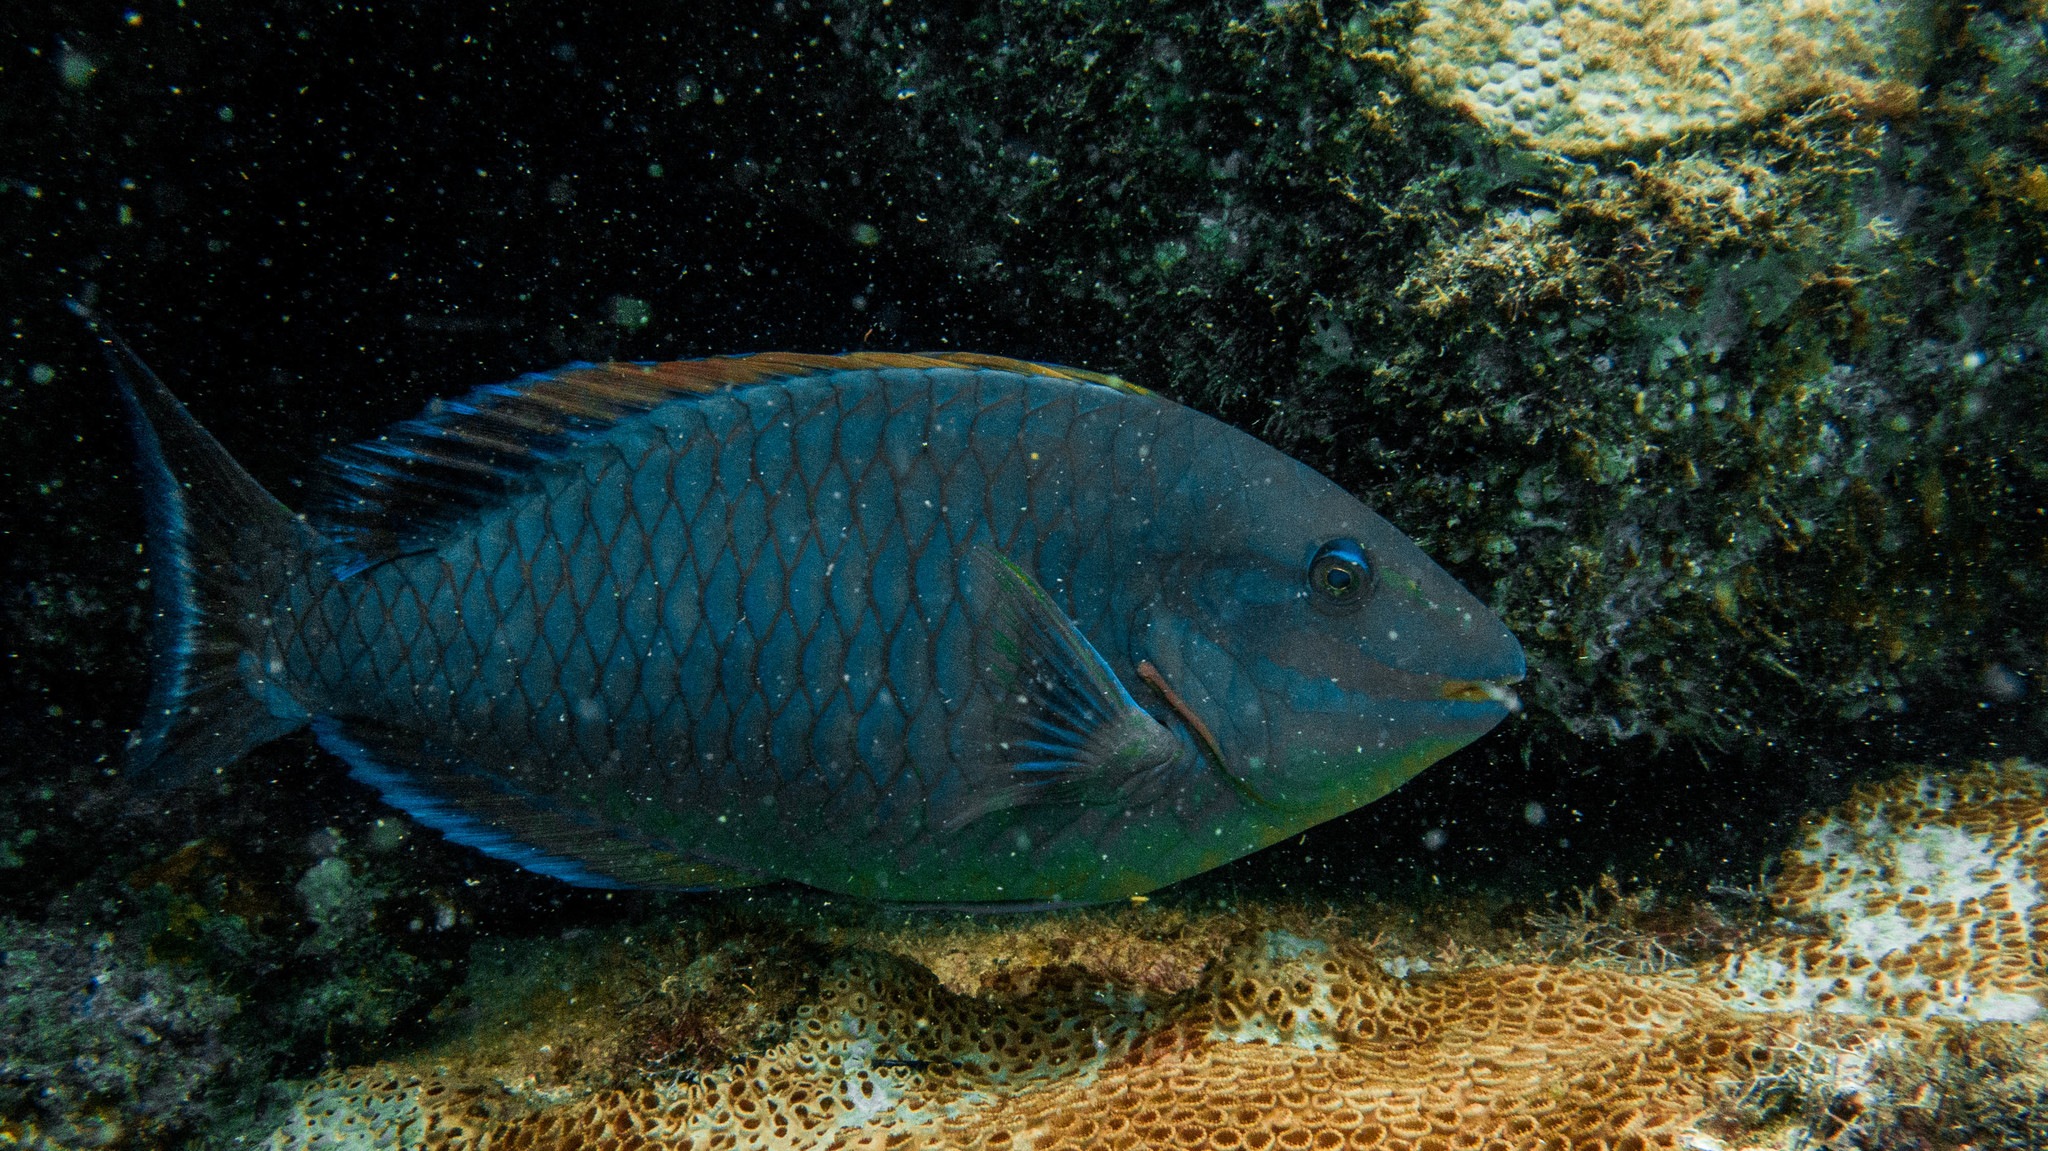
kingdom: Animalia
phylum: Chordata
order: Perciformes
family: Scaridae
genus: Sparisoma
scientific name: Sparisoma amplum
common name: Reef parrotfish
